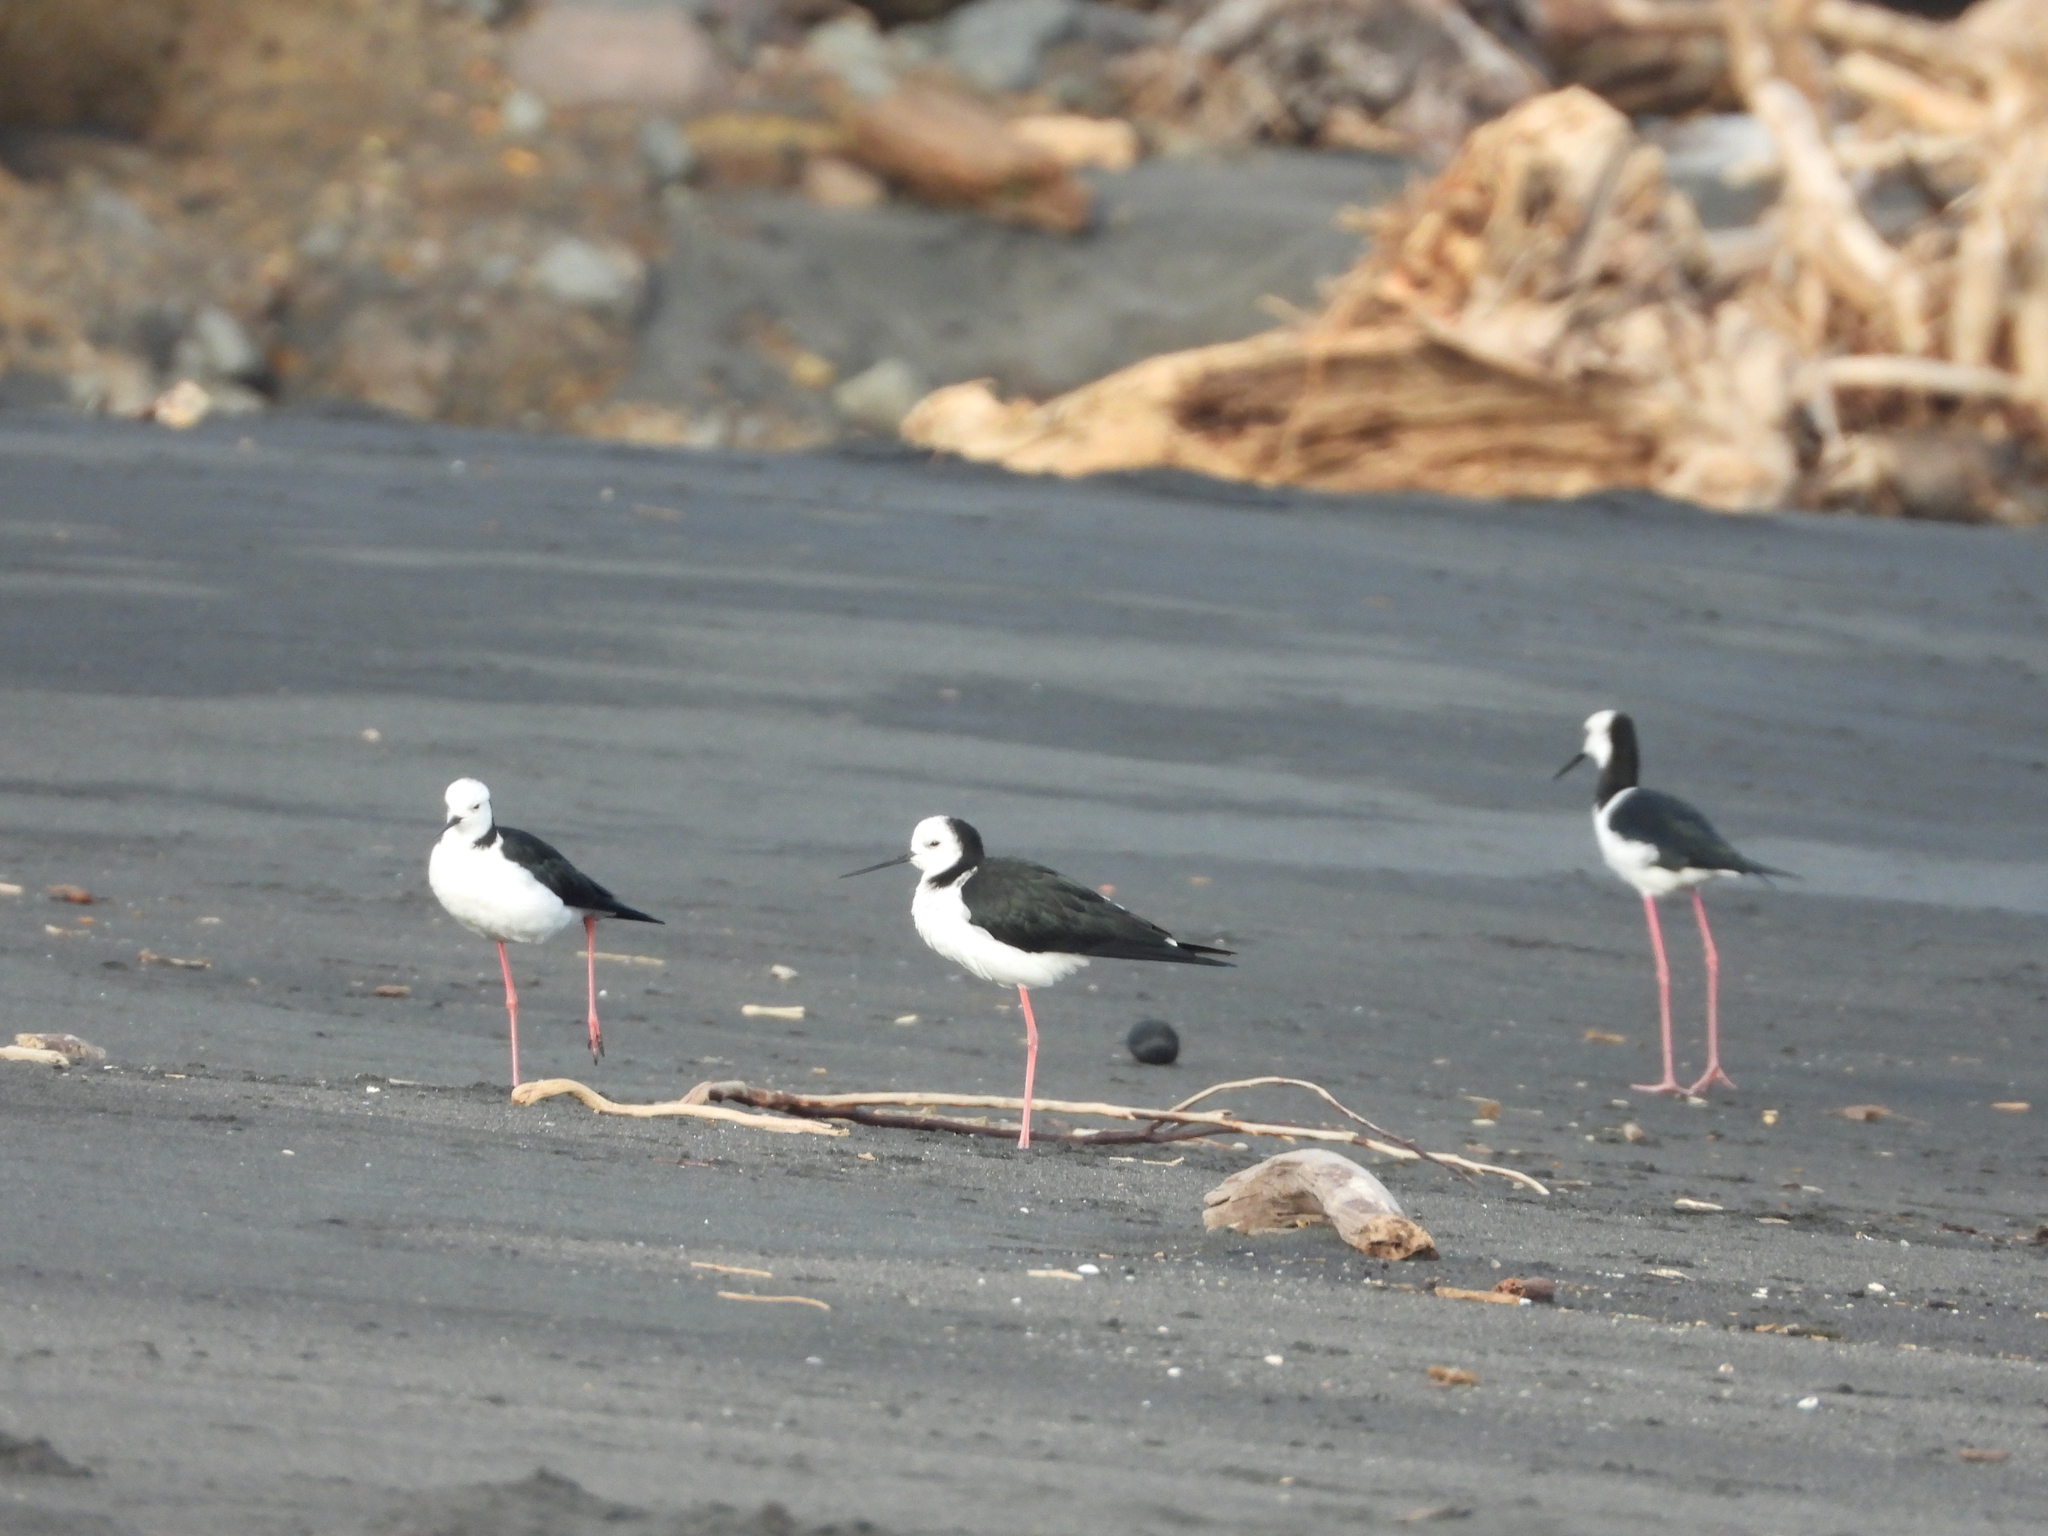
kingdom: Animalia
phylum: Chordata
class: Aves
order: Charadriiformes
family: Recurvirostridae
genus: Himantopus
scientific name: Himantopus leucocephalus
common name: White-headed stilt
